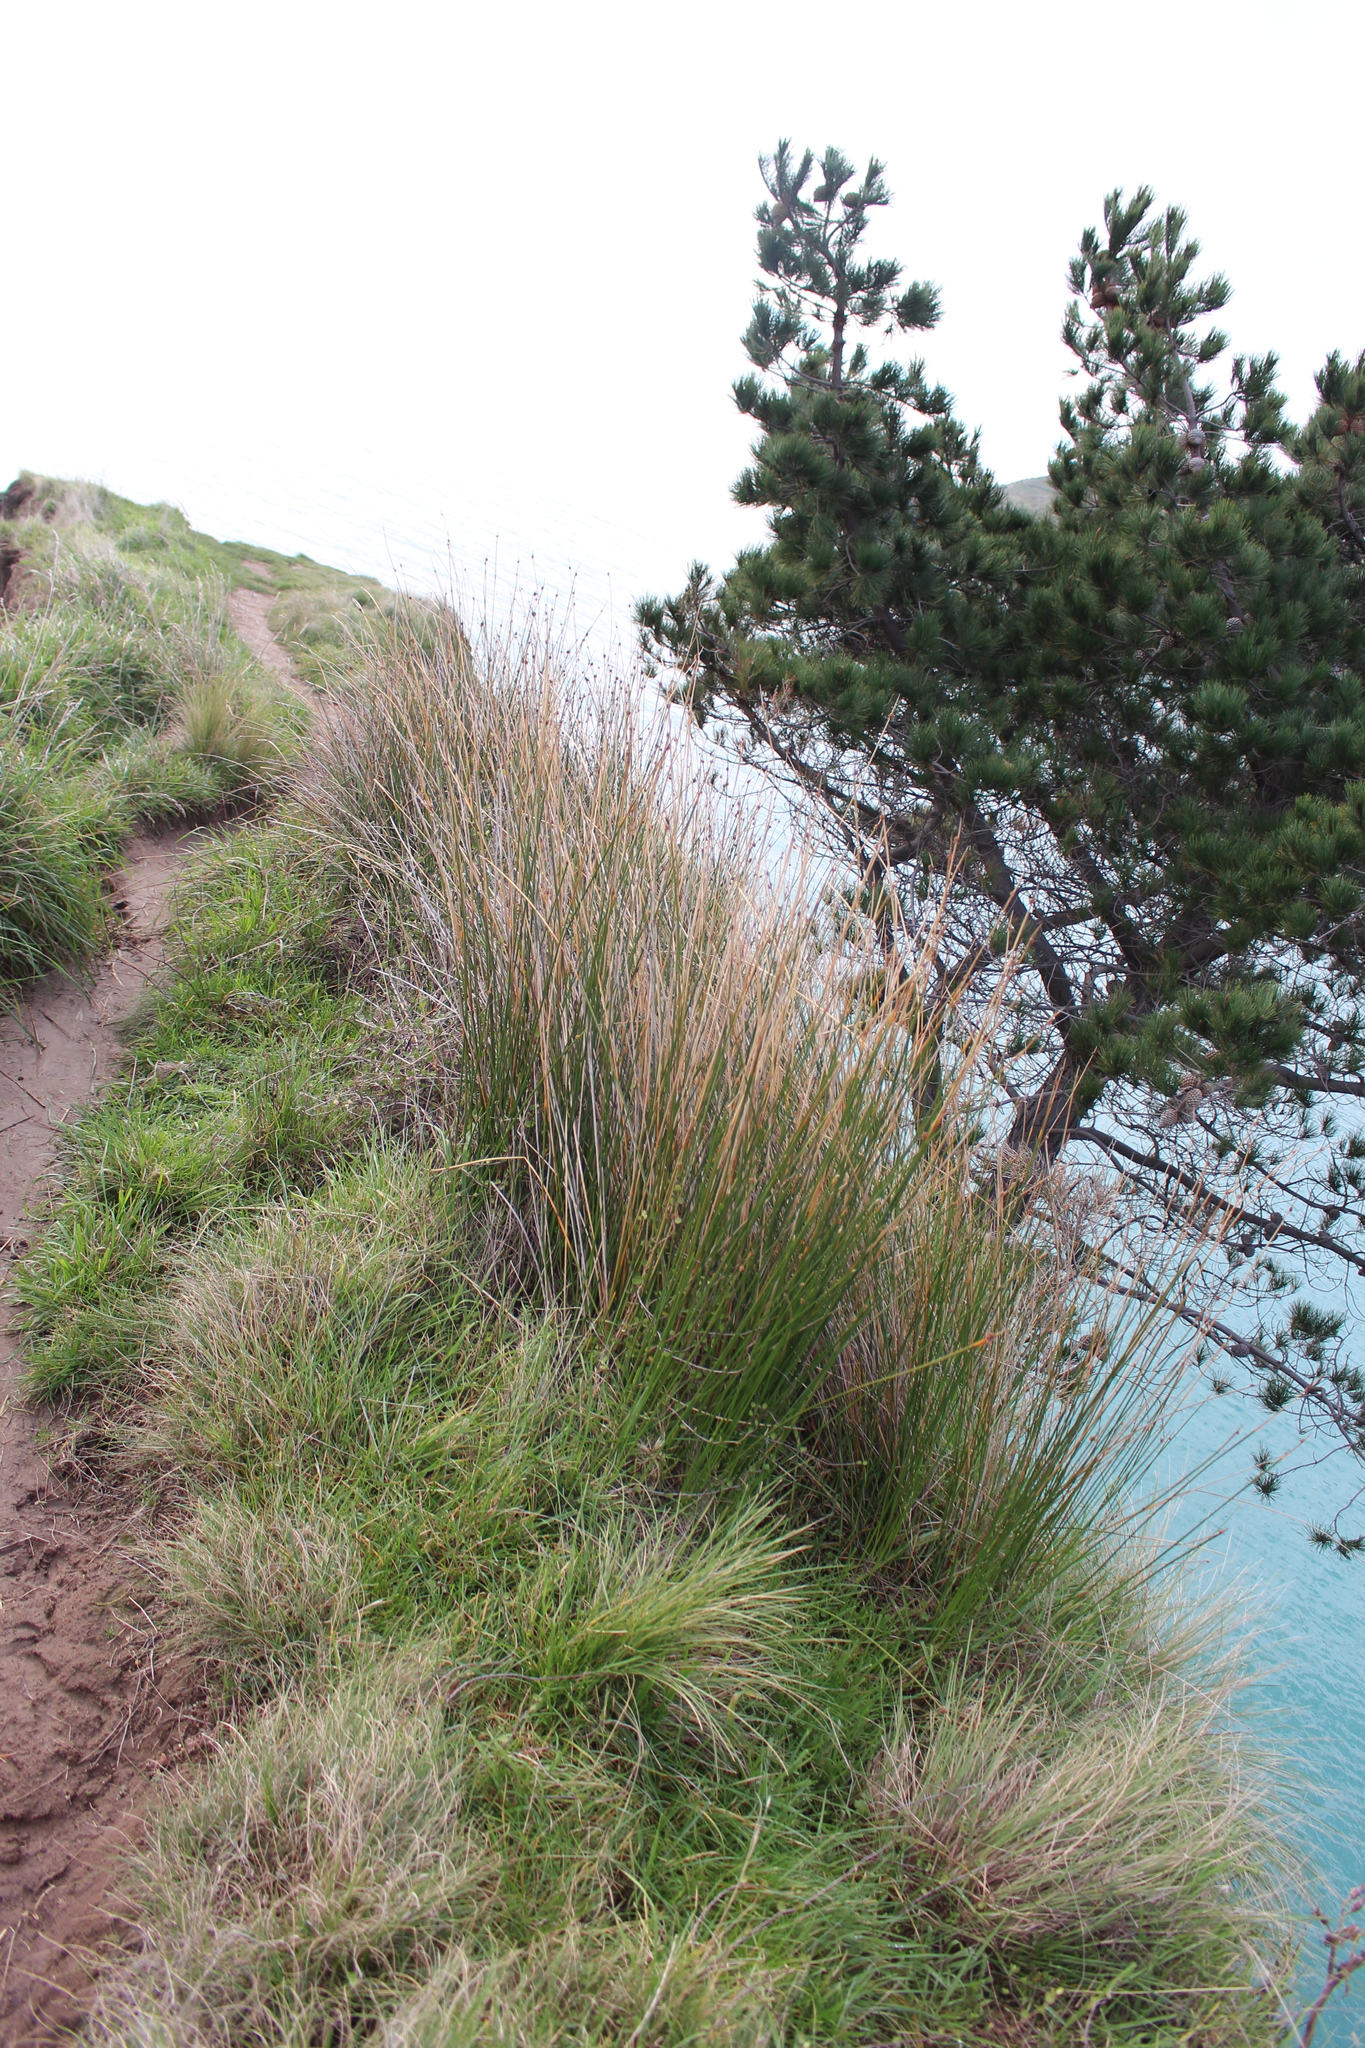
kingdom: Plantae
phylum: Tracheophyta
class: Liliopsida
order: Poales
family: Cyperaceae
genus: Ficinia
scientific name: Ficinia nodosa
